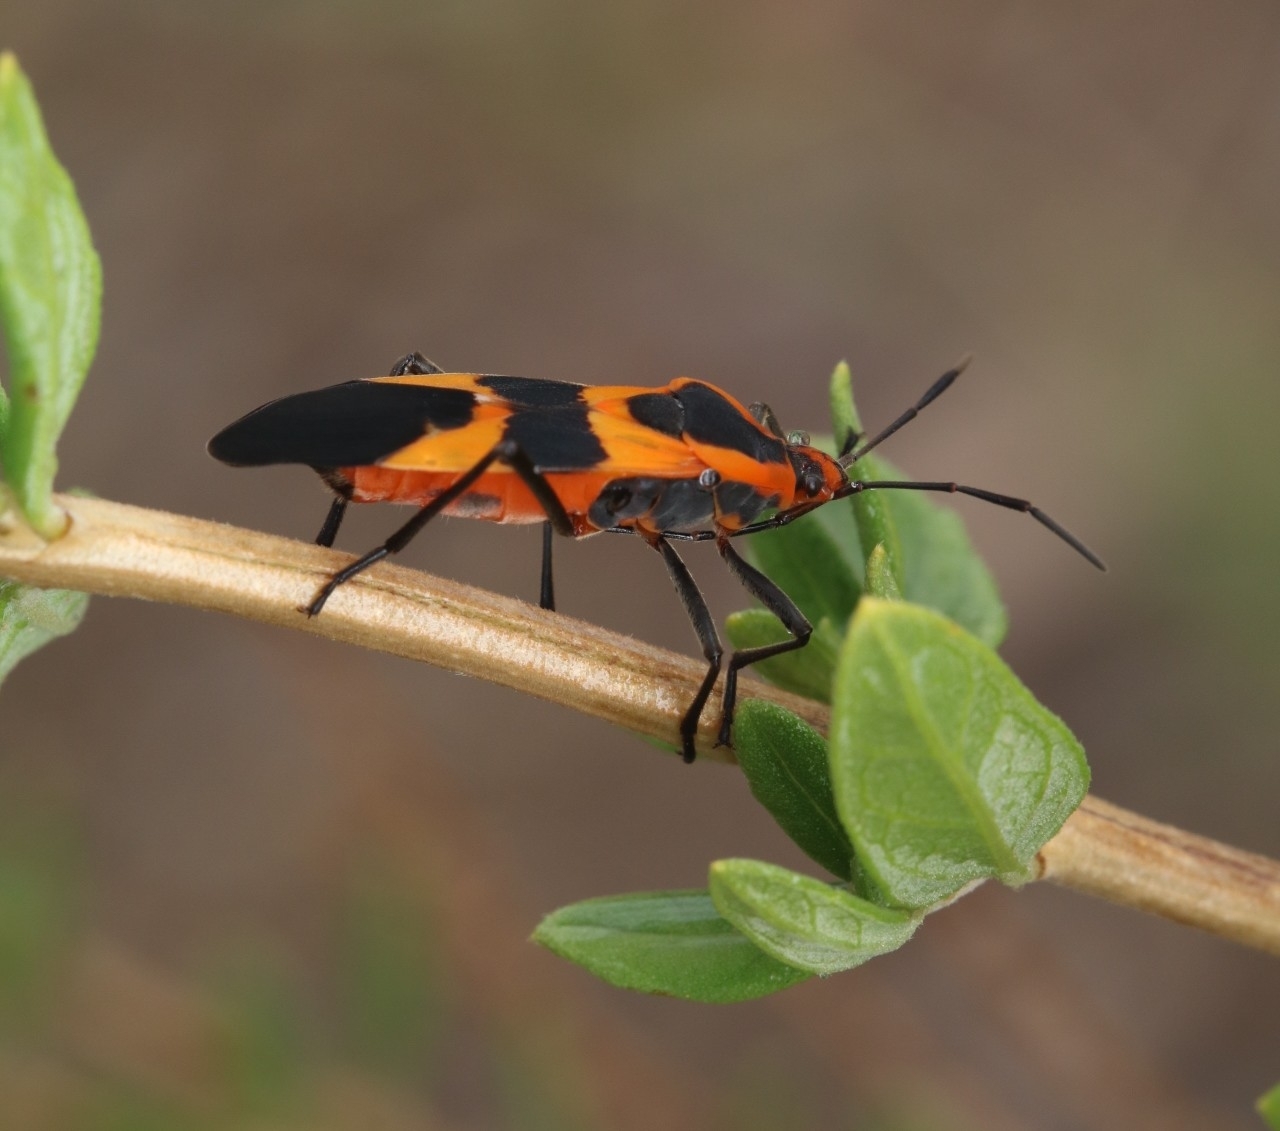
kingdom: Animalia
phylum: Arthropoda
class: Insecta
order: Hemiptera
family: Lygaeidae
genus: Oncopeltus
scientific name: Oncopeltus fasciatus
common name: Large milkweed bug
